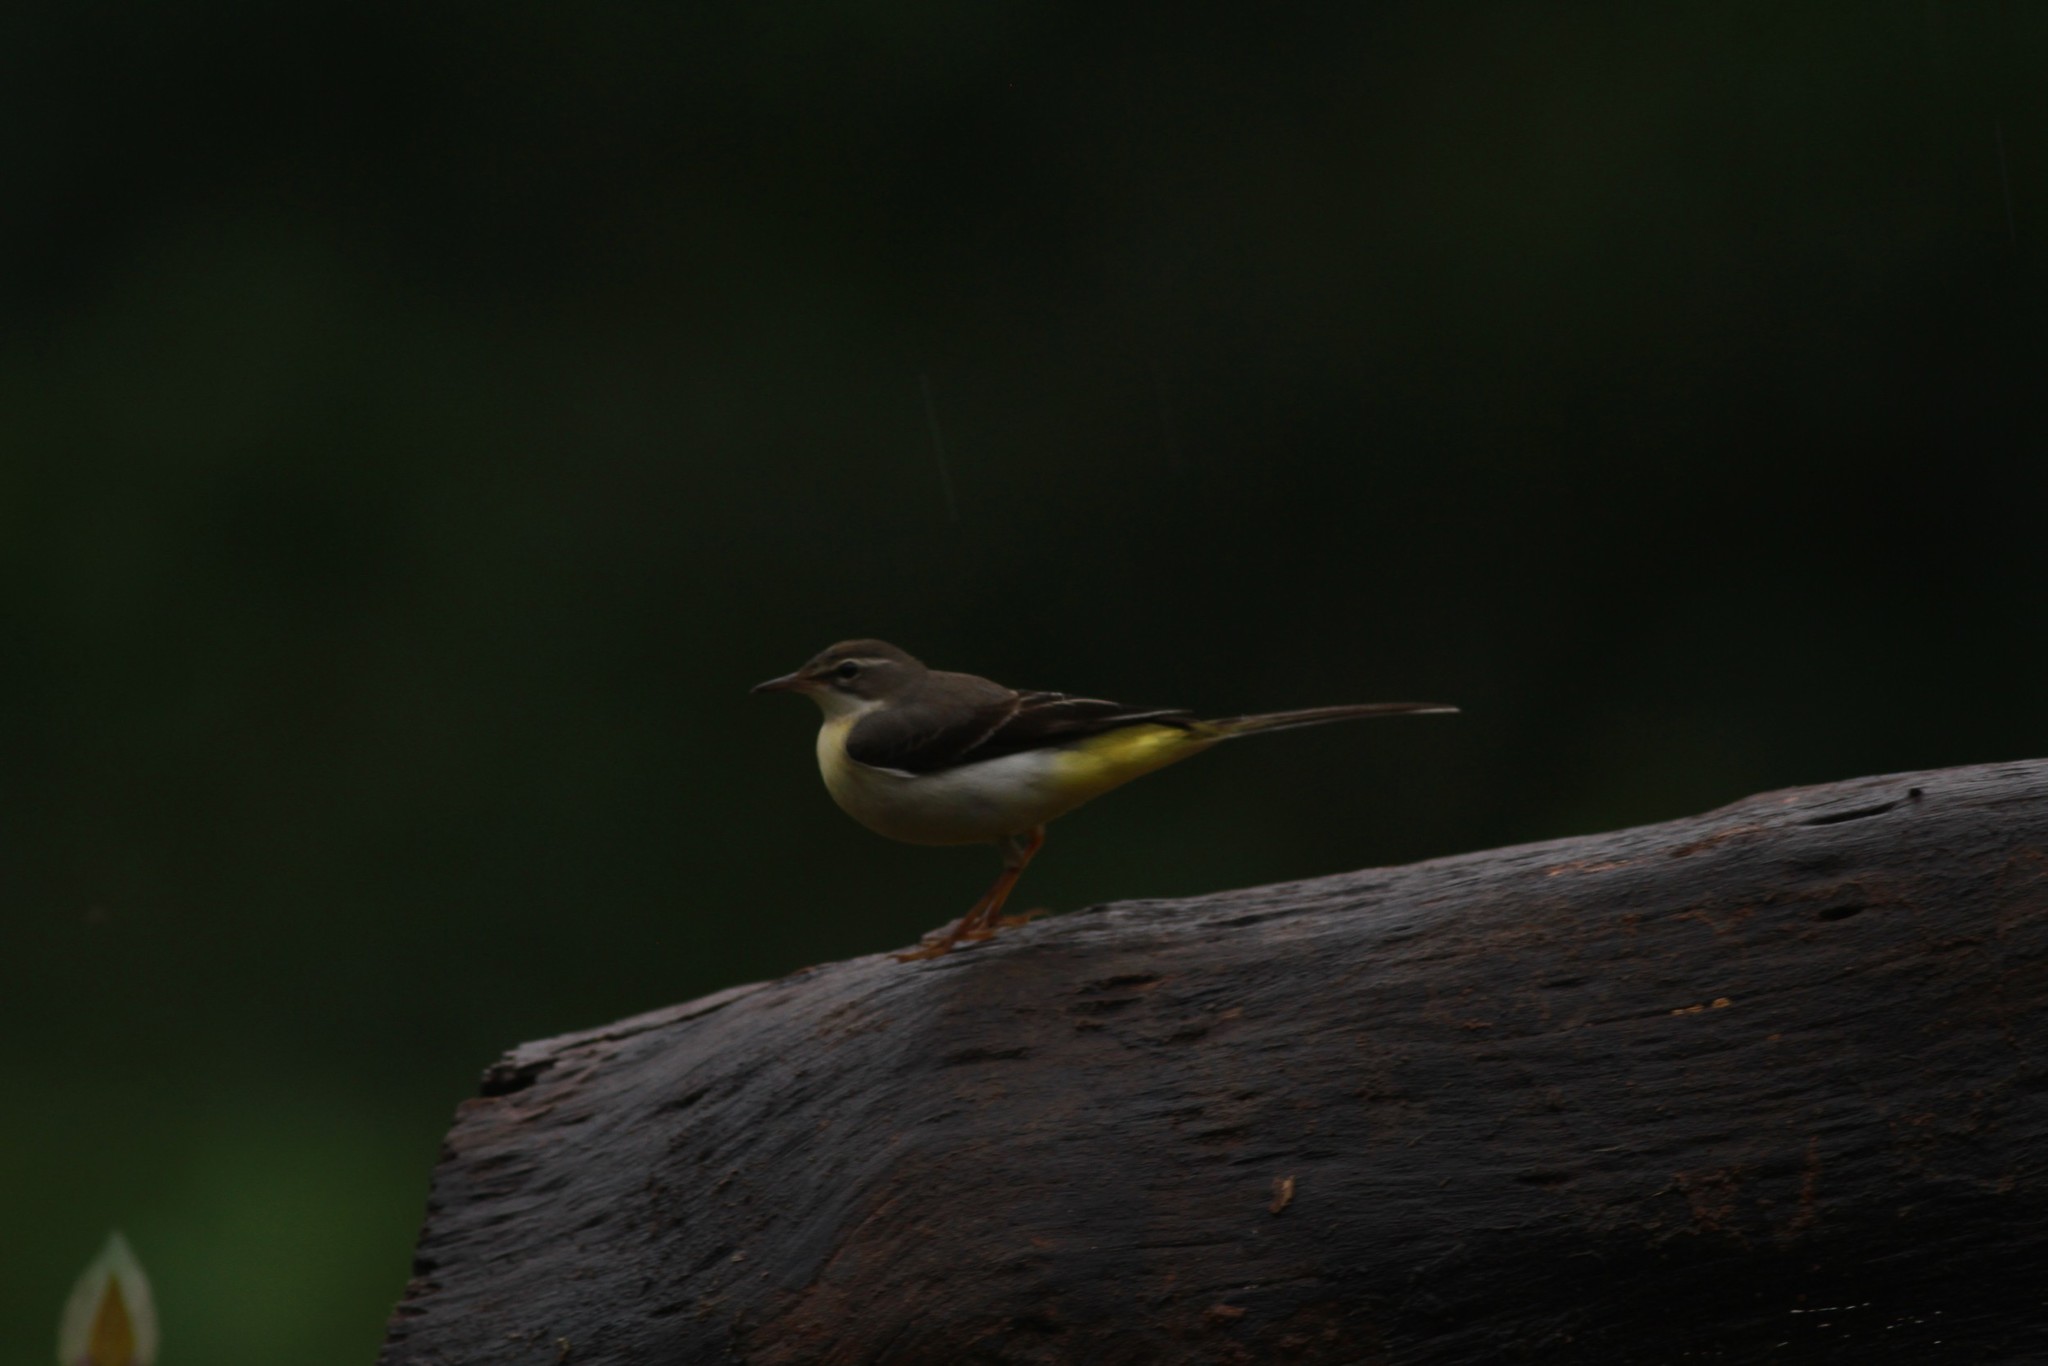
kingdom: Animalia
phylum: Chordata
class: Aves
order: Passeriformes
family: Motacillidae
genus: Motacilla
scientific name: Motacilla cinerea
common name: Grey wagtail
